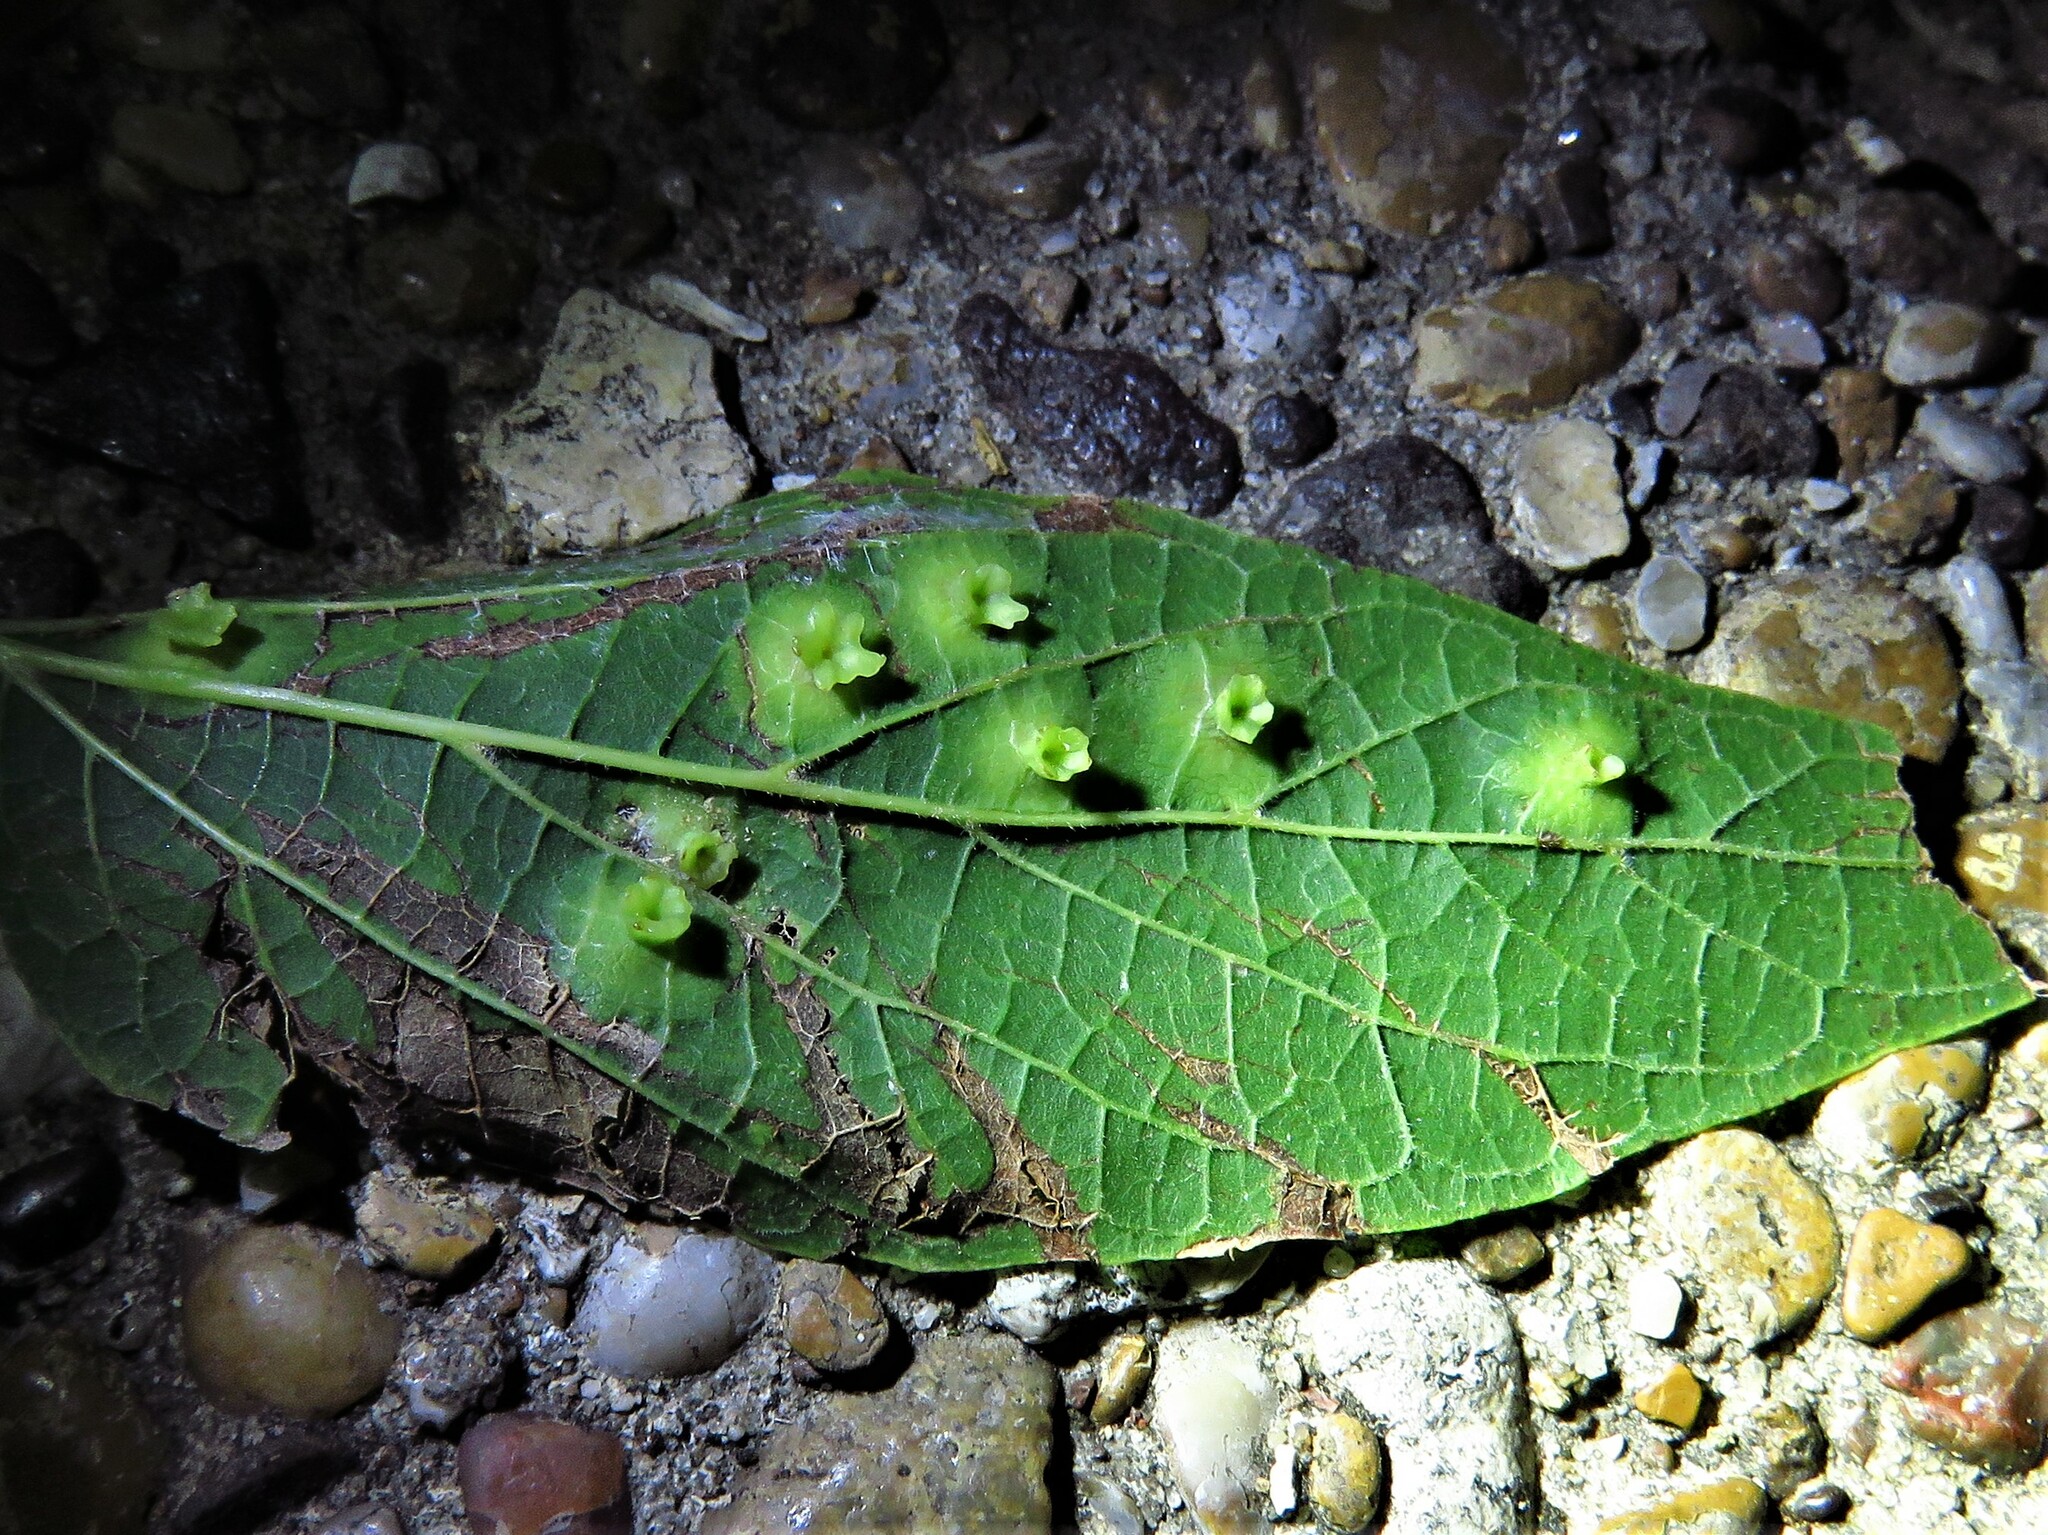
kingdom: Animalia
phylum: Arthropoda
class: Insecta
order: Hemiptera
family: Aphalaridae
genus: Pachypsylla
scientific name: Pachypsylla celtidisasterisca
